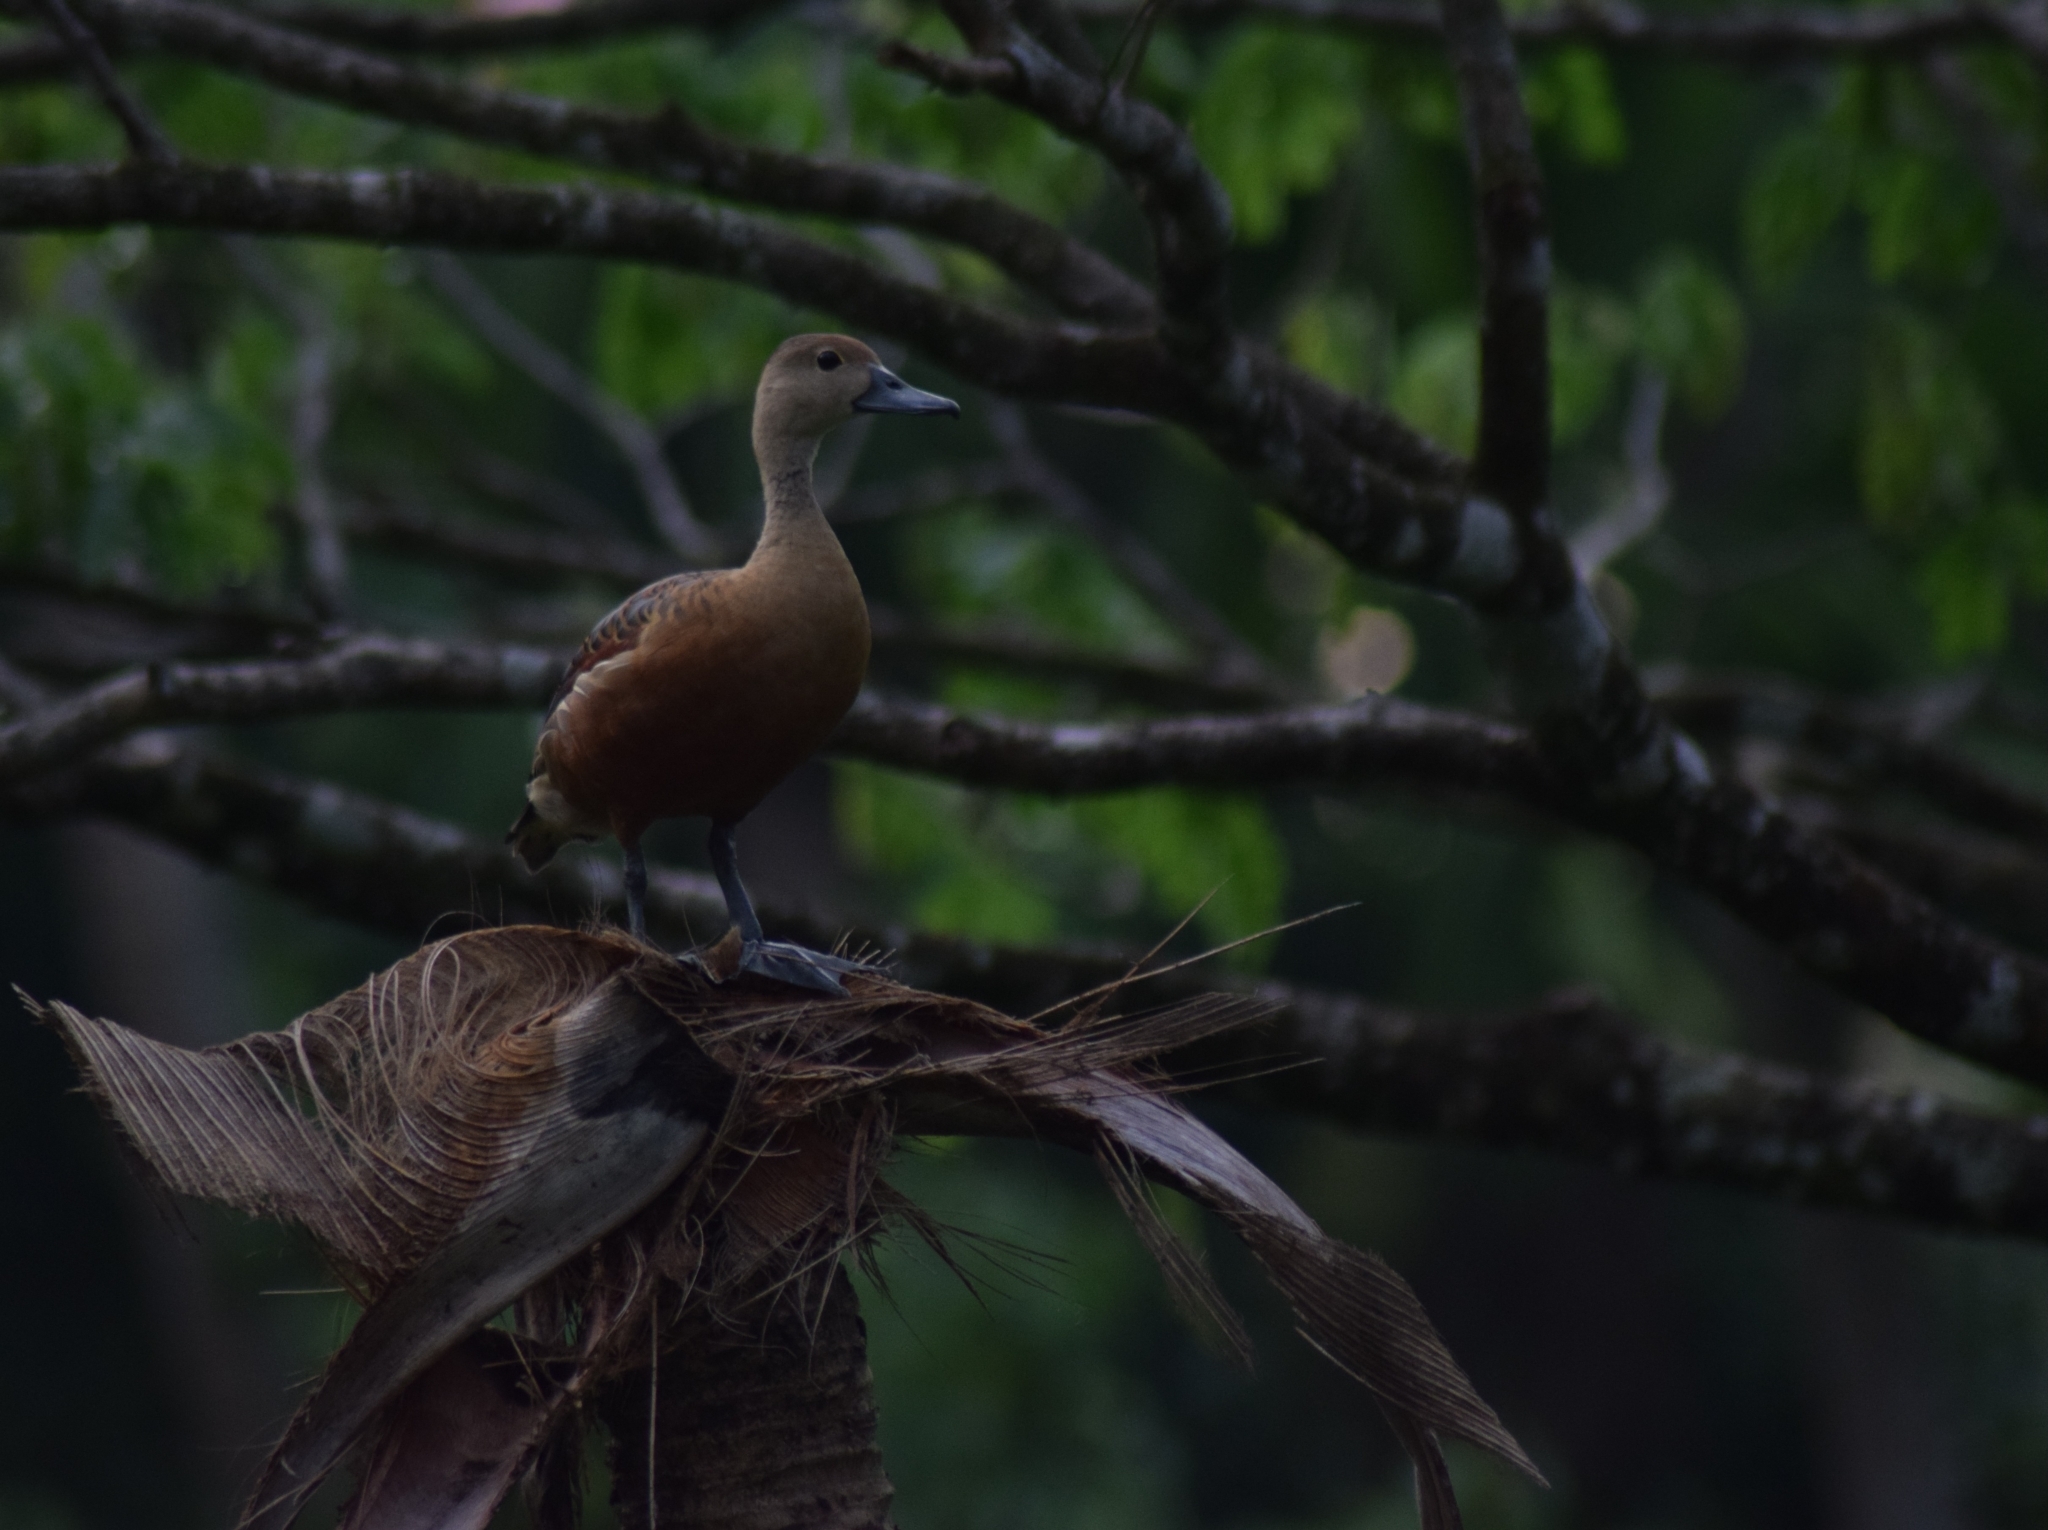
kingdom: Animalia
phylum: Chordata
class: Aves
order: Anseriformes
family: Anatidae
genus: Dendrocygna
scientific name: Dendrocygna javanica
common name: Lesser whistling-duck
